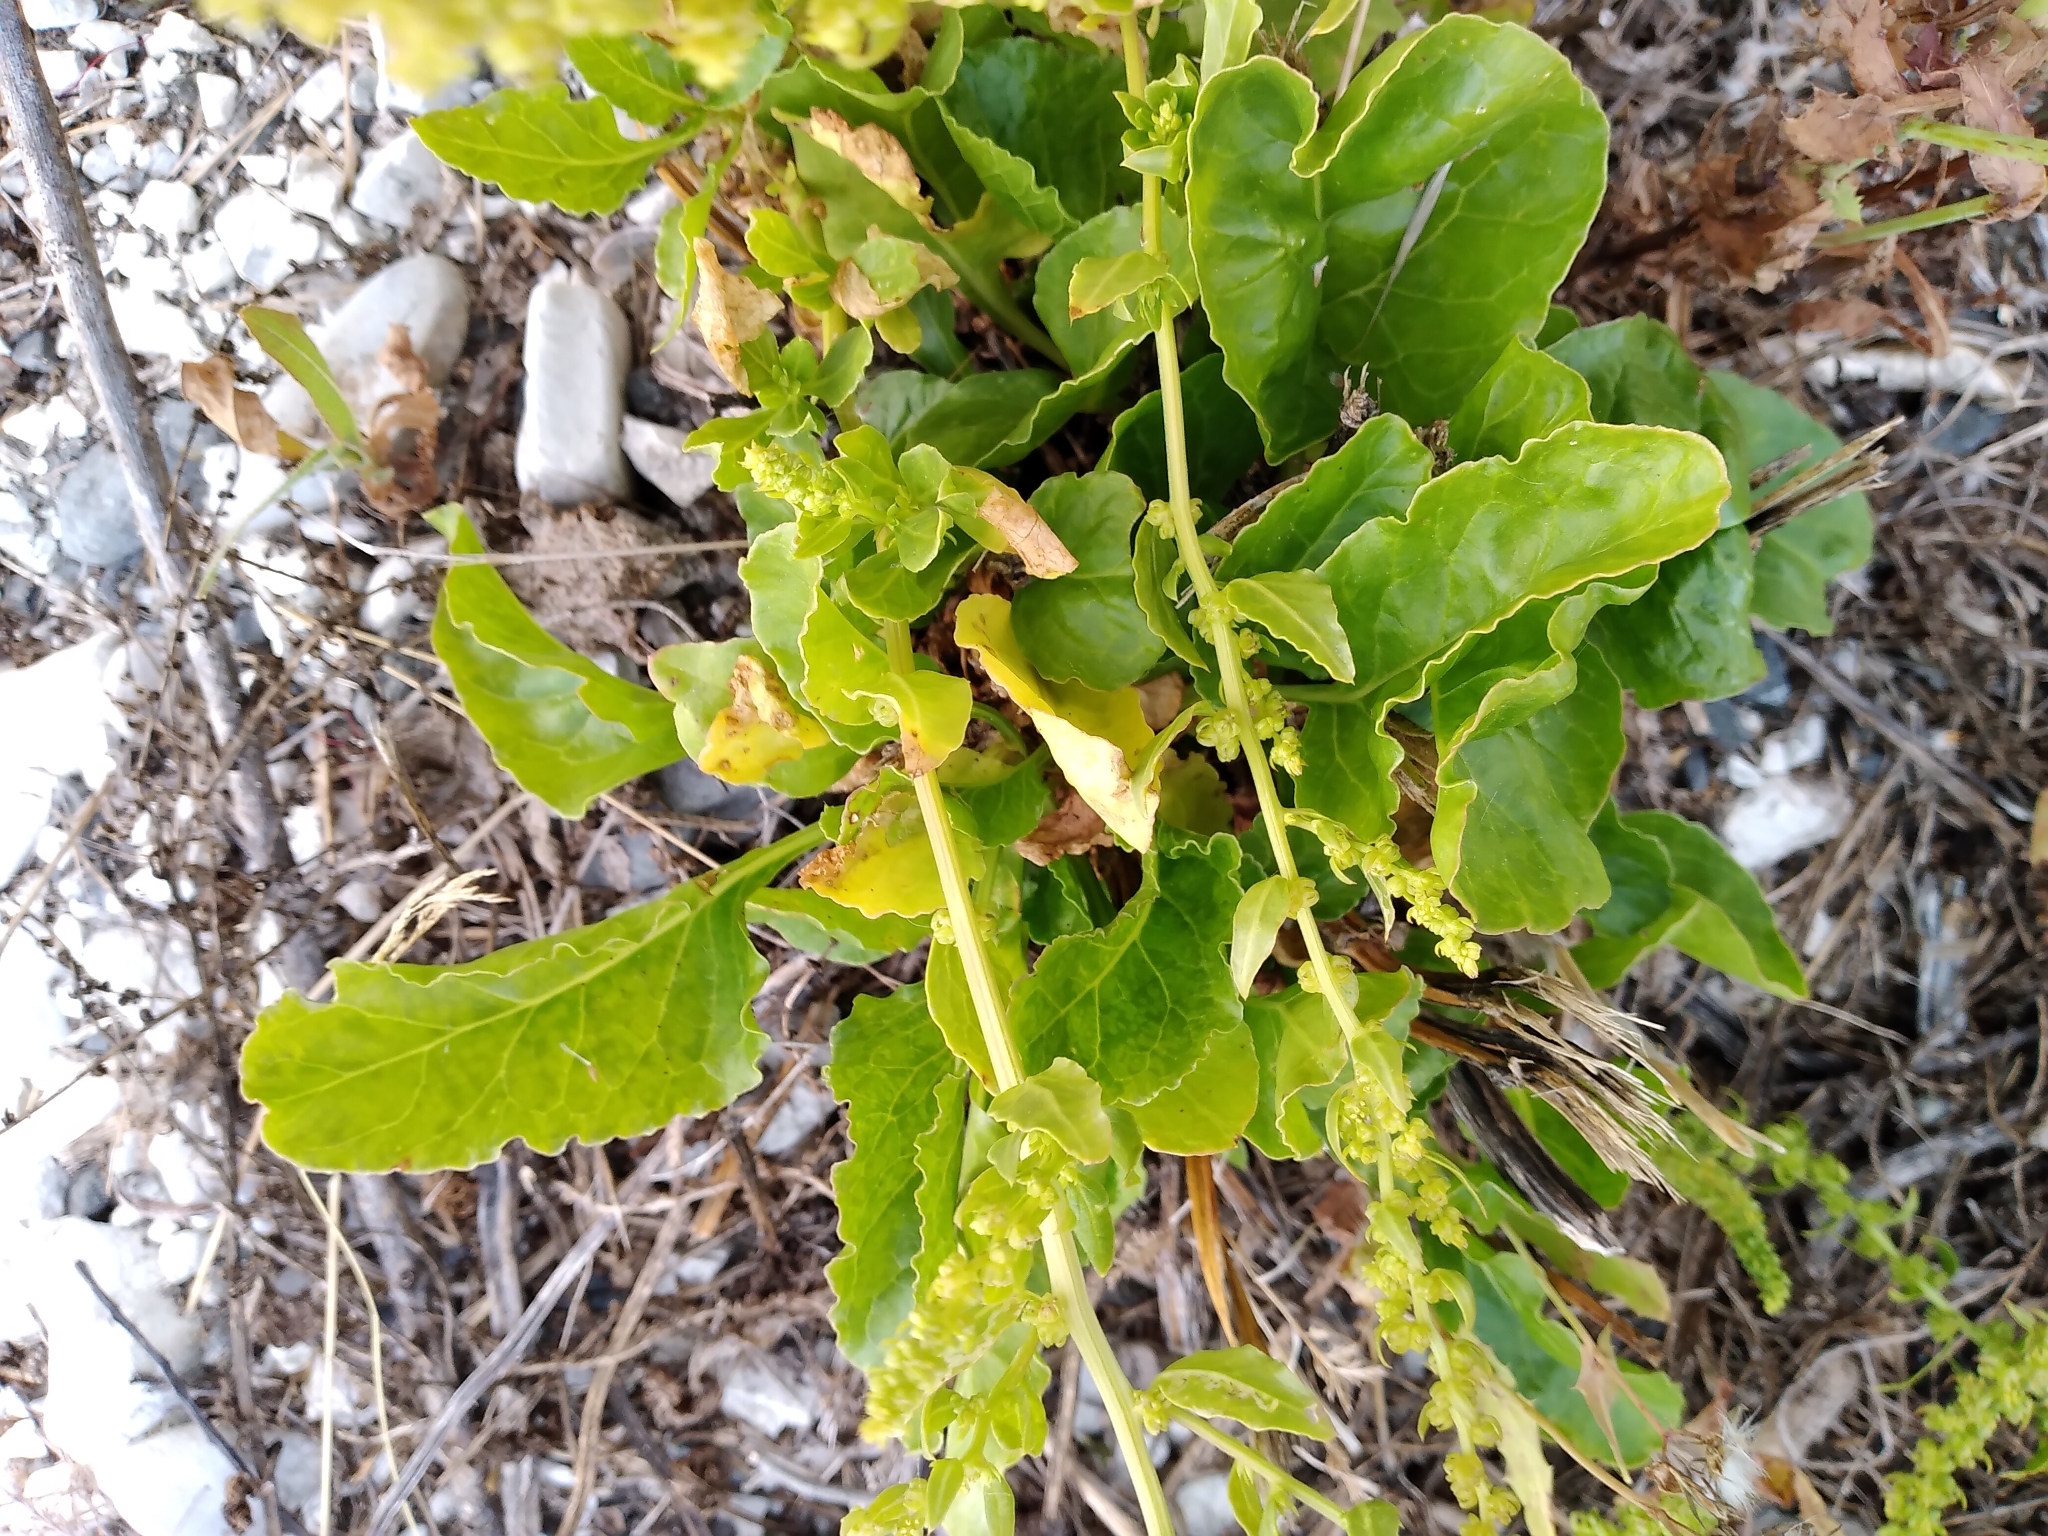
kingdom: Plantae
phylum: Tracheophyta
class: Magnoliopsida
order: Caryophyllales
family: Amaranthaceae
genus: Beta
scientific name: Beta vulgaris
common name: Beet
